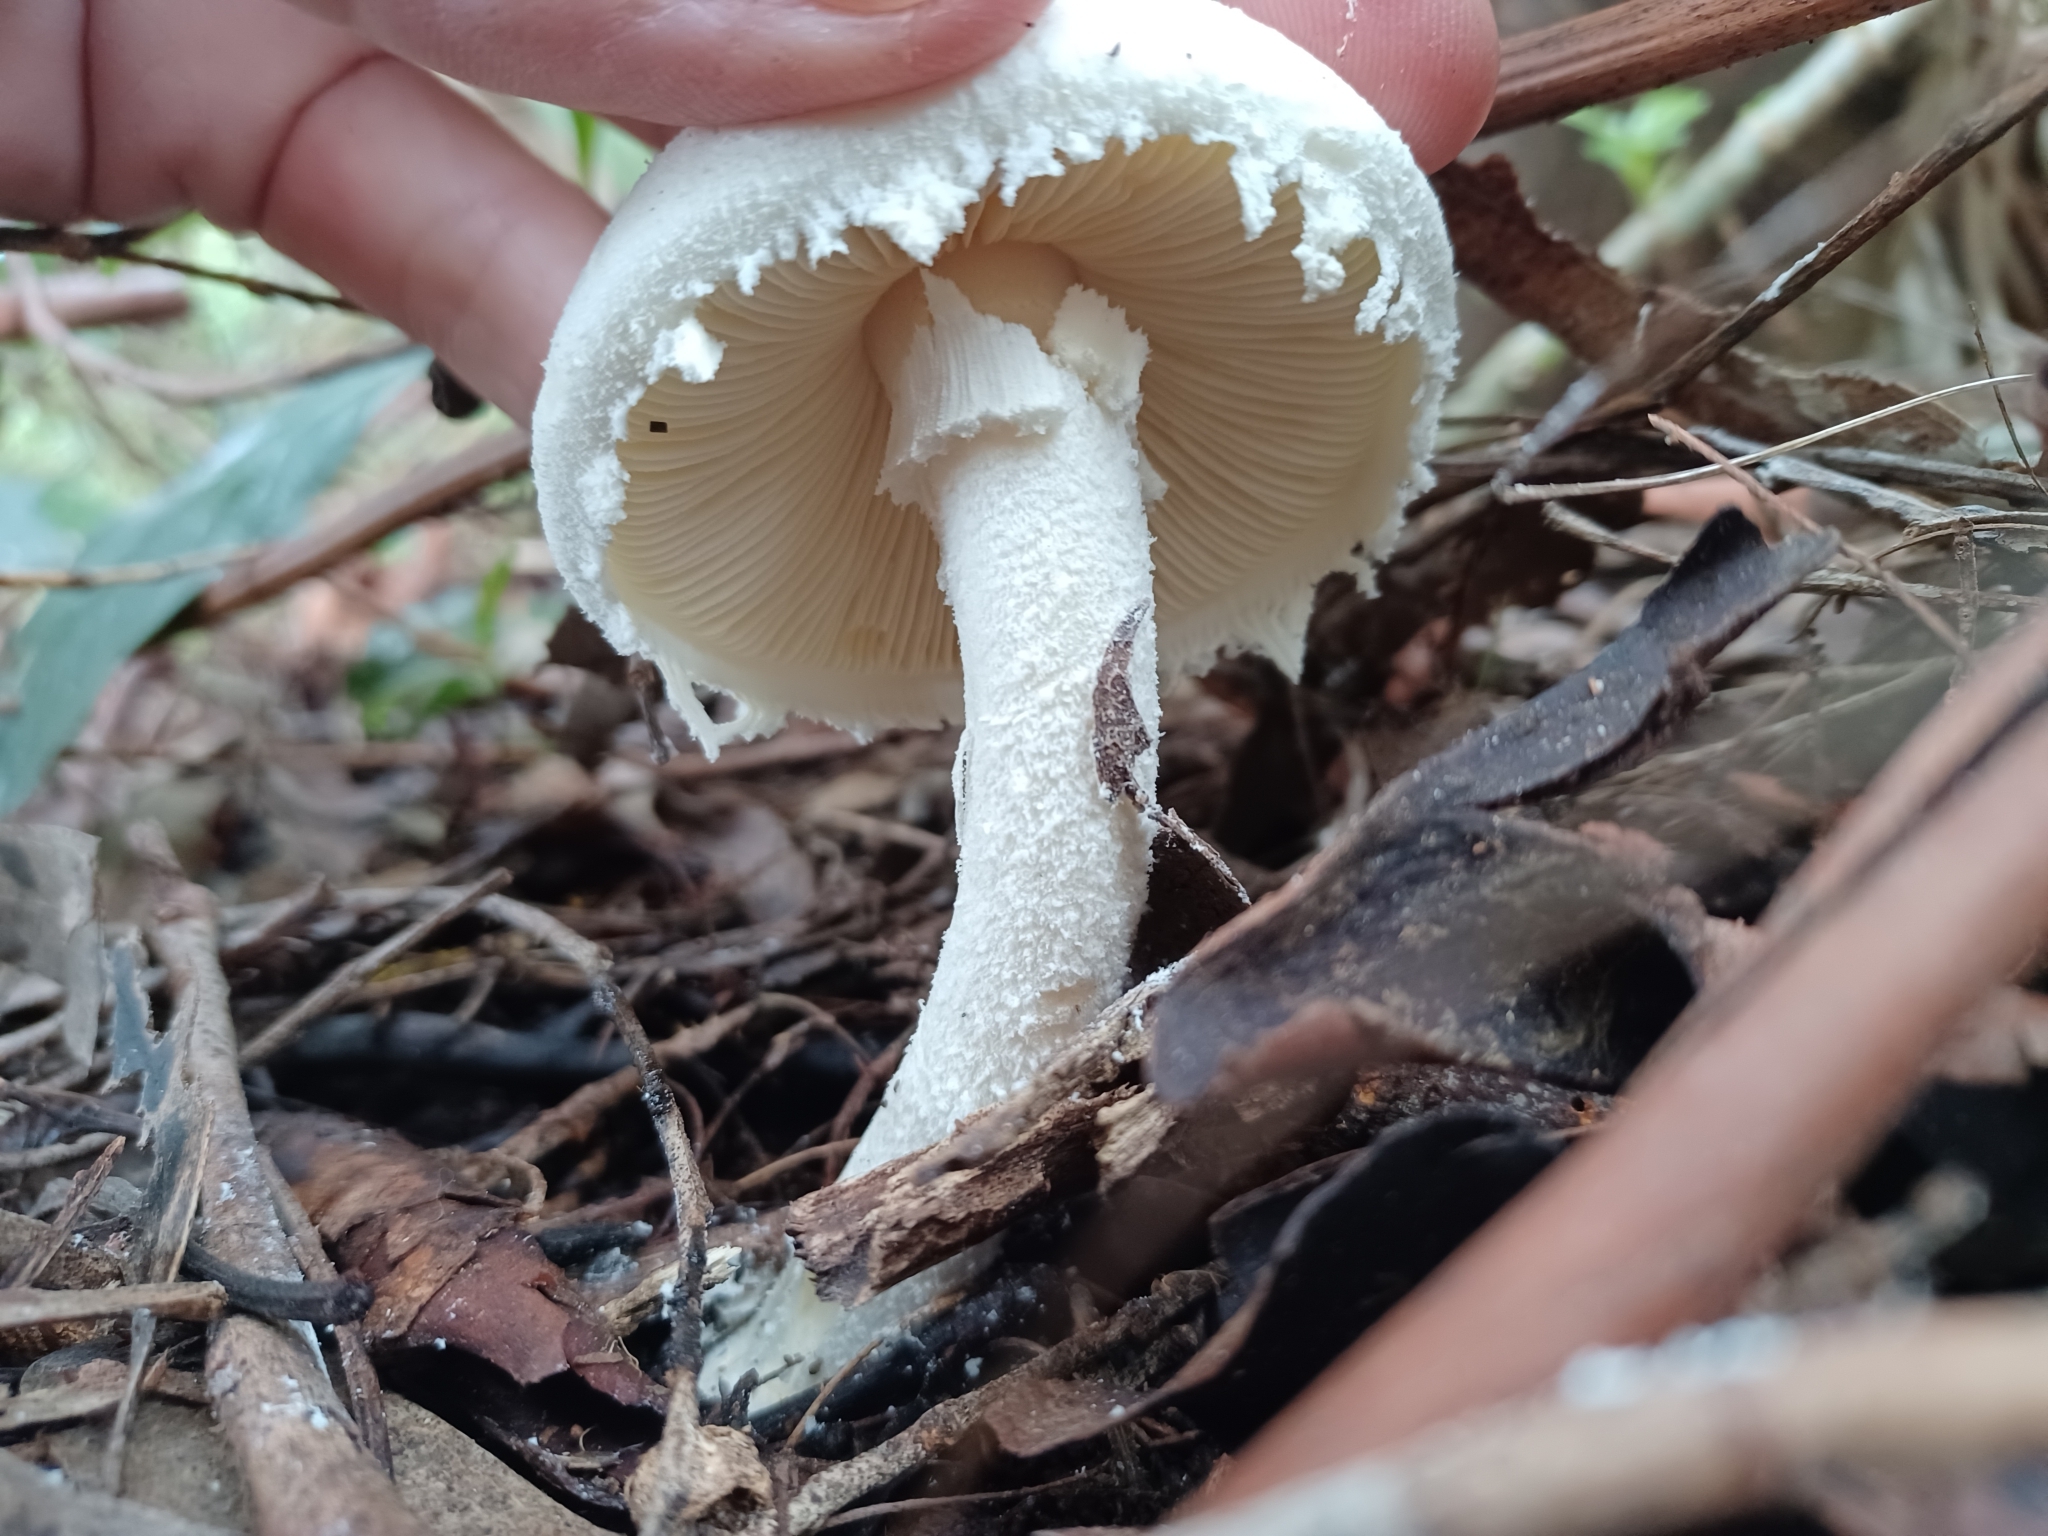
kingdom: Fungi
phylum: Basidiomycota
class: Agaricomycetes
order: Agaricales
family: Amanitaceae
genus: Amanita
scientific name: Amanita farinacea
